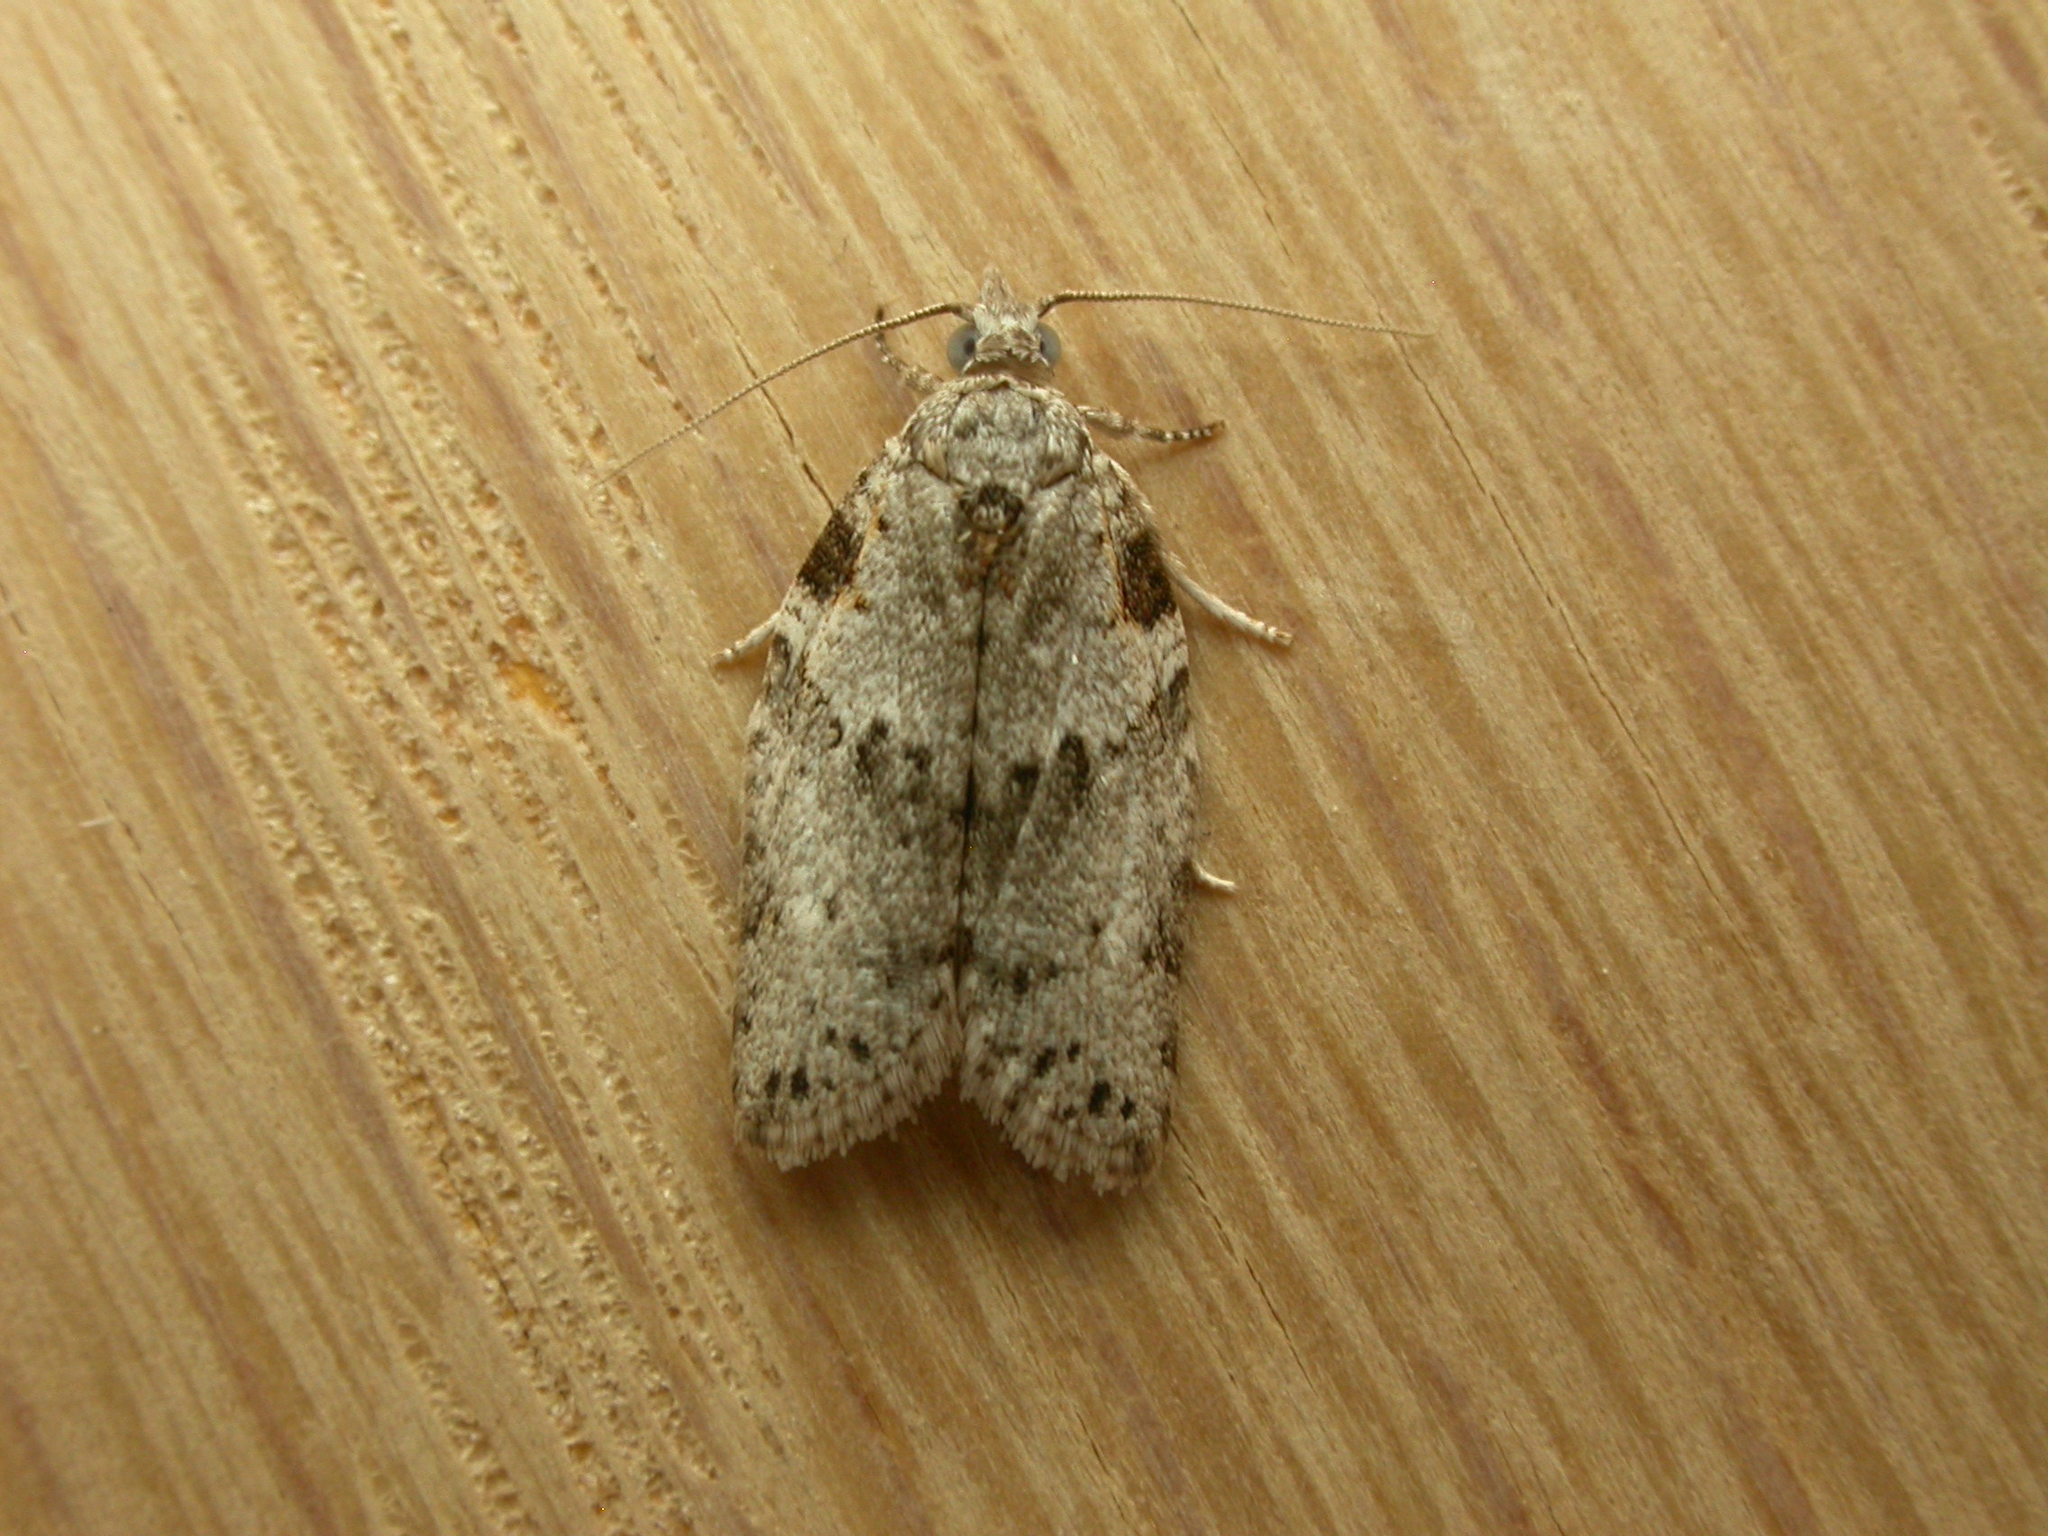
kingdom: Animalia
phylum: Arthropoda
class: Insecta
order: Lepidoptera
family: Tortricidae
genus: Isotenes
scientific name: Isotenes miserana
